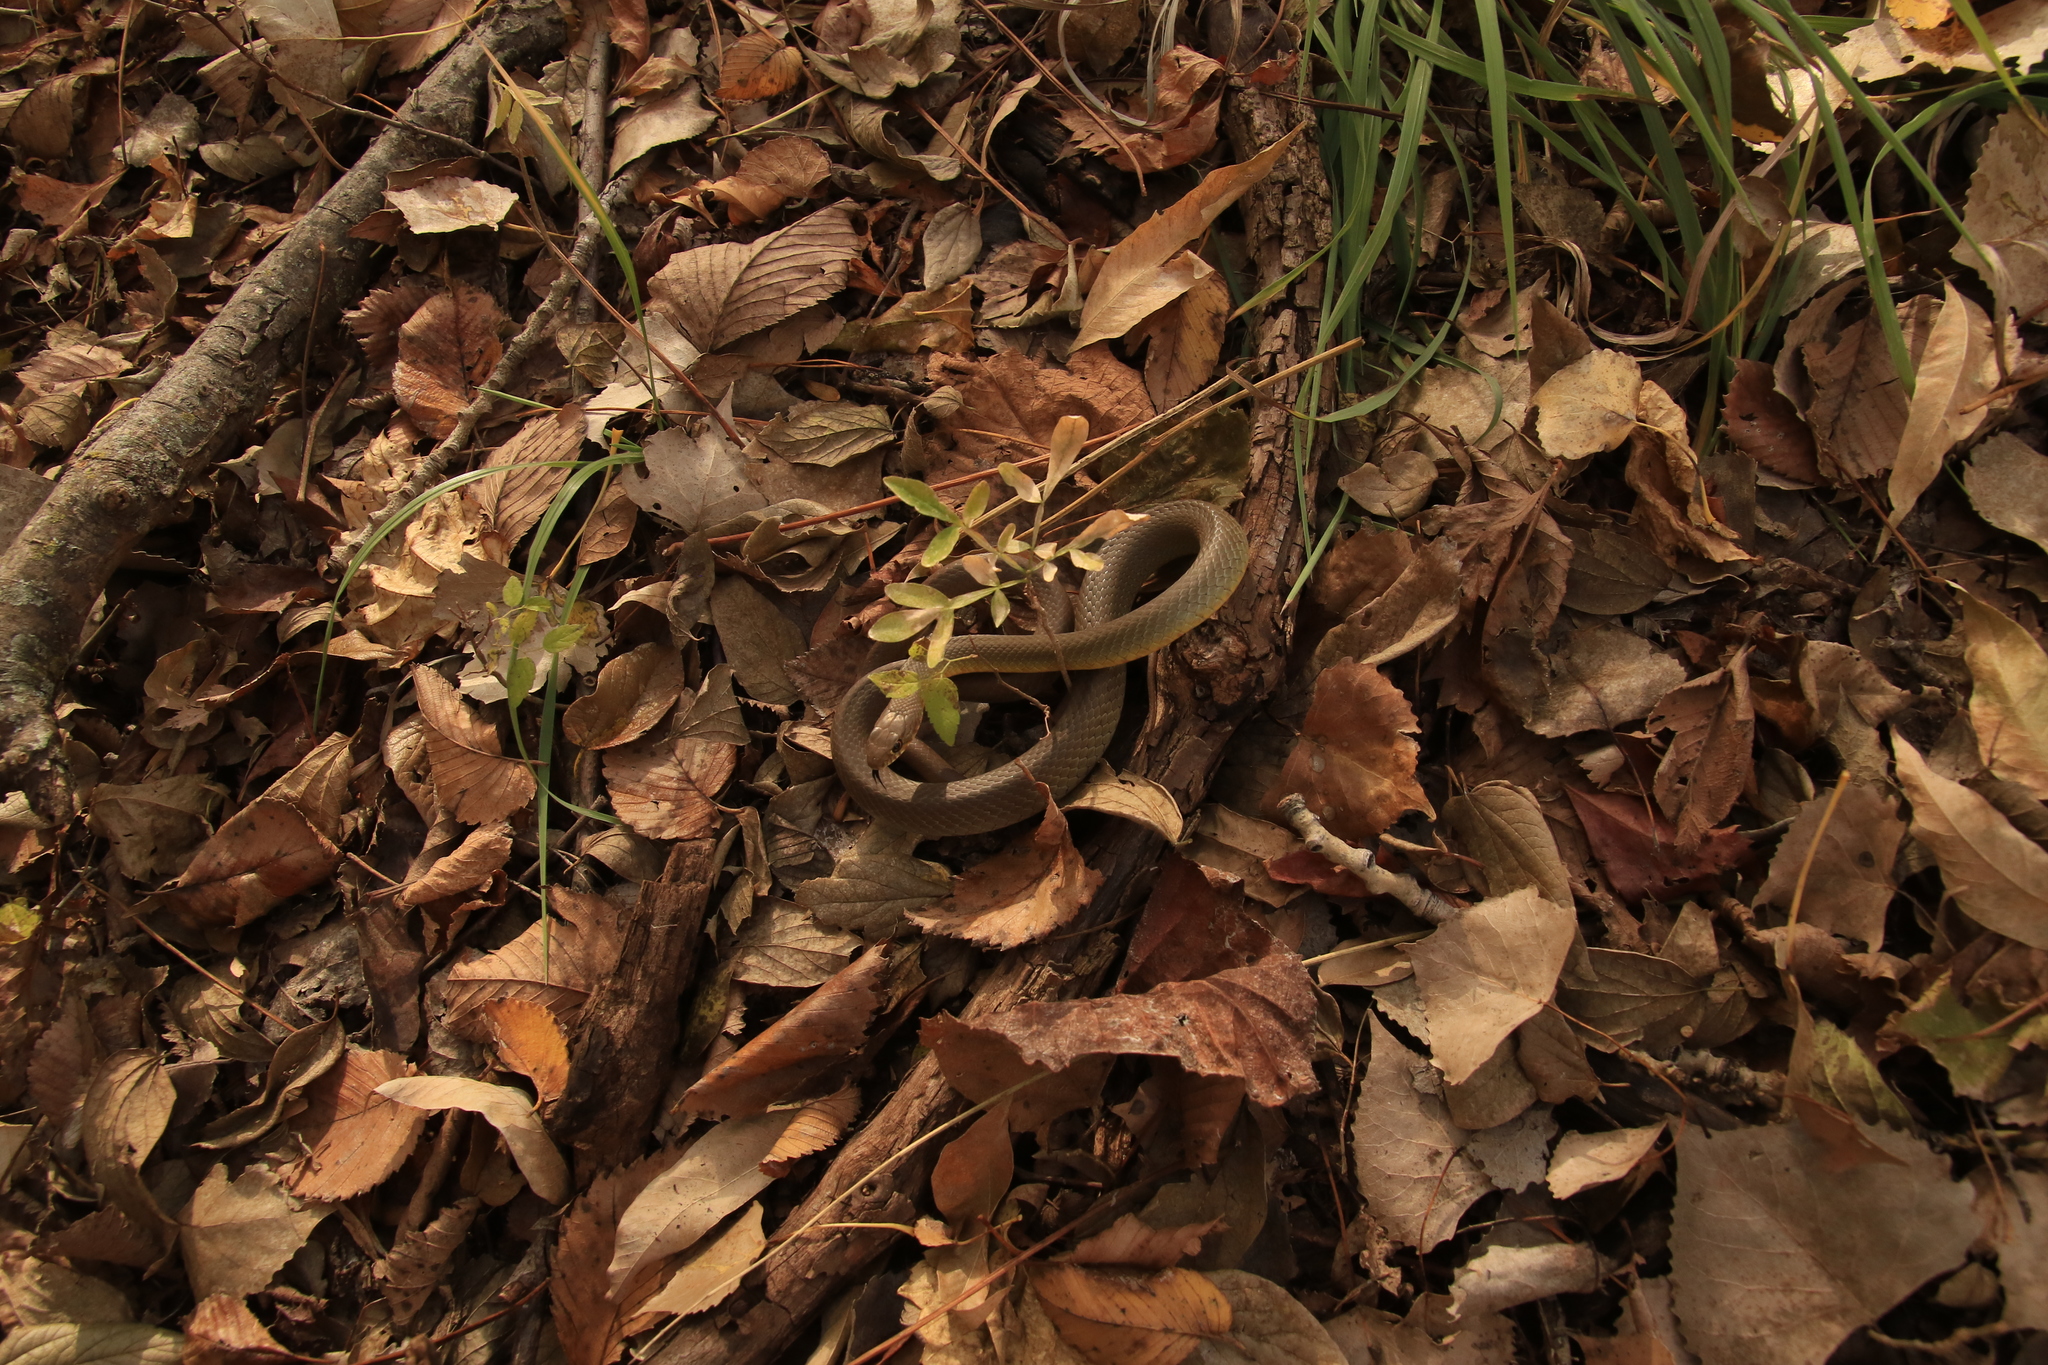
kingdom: Animalia
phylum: Chordata
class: Squamata
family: Colubridae
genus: Coluber
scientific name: Coluber constrictor
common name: Eastern racer
